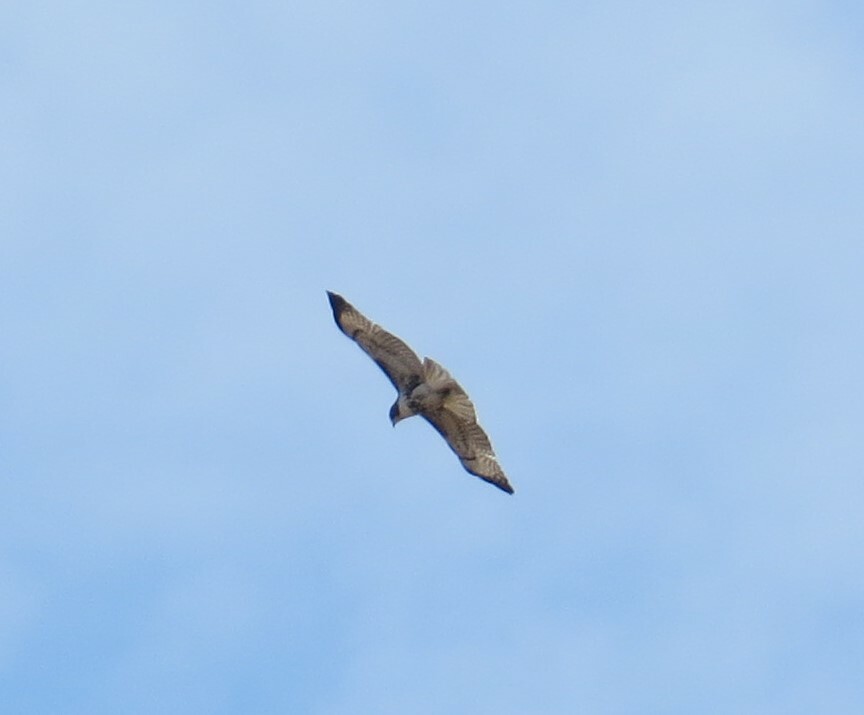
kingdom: Animalia
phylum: Chordata
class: Aves
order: Accipitriformes
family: Accipitridae
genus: Buteo
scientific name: Buteo jamaicensis
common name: Red-tailed hawk
